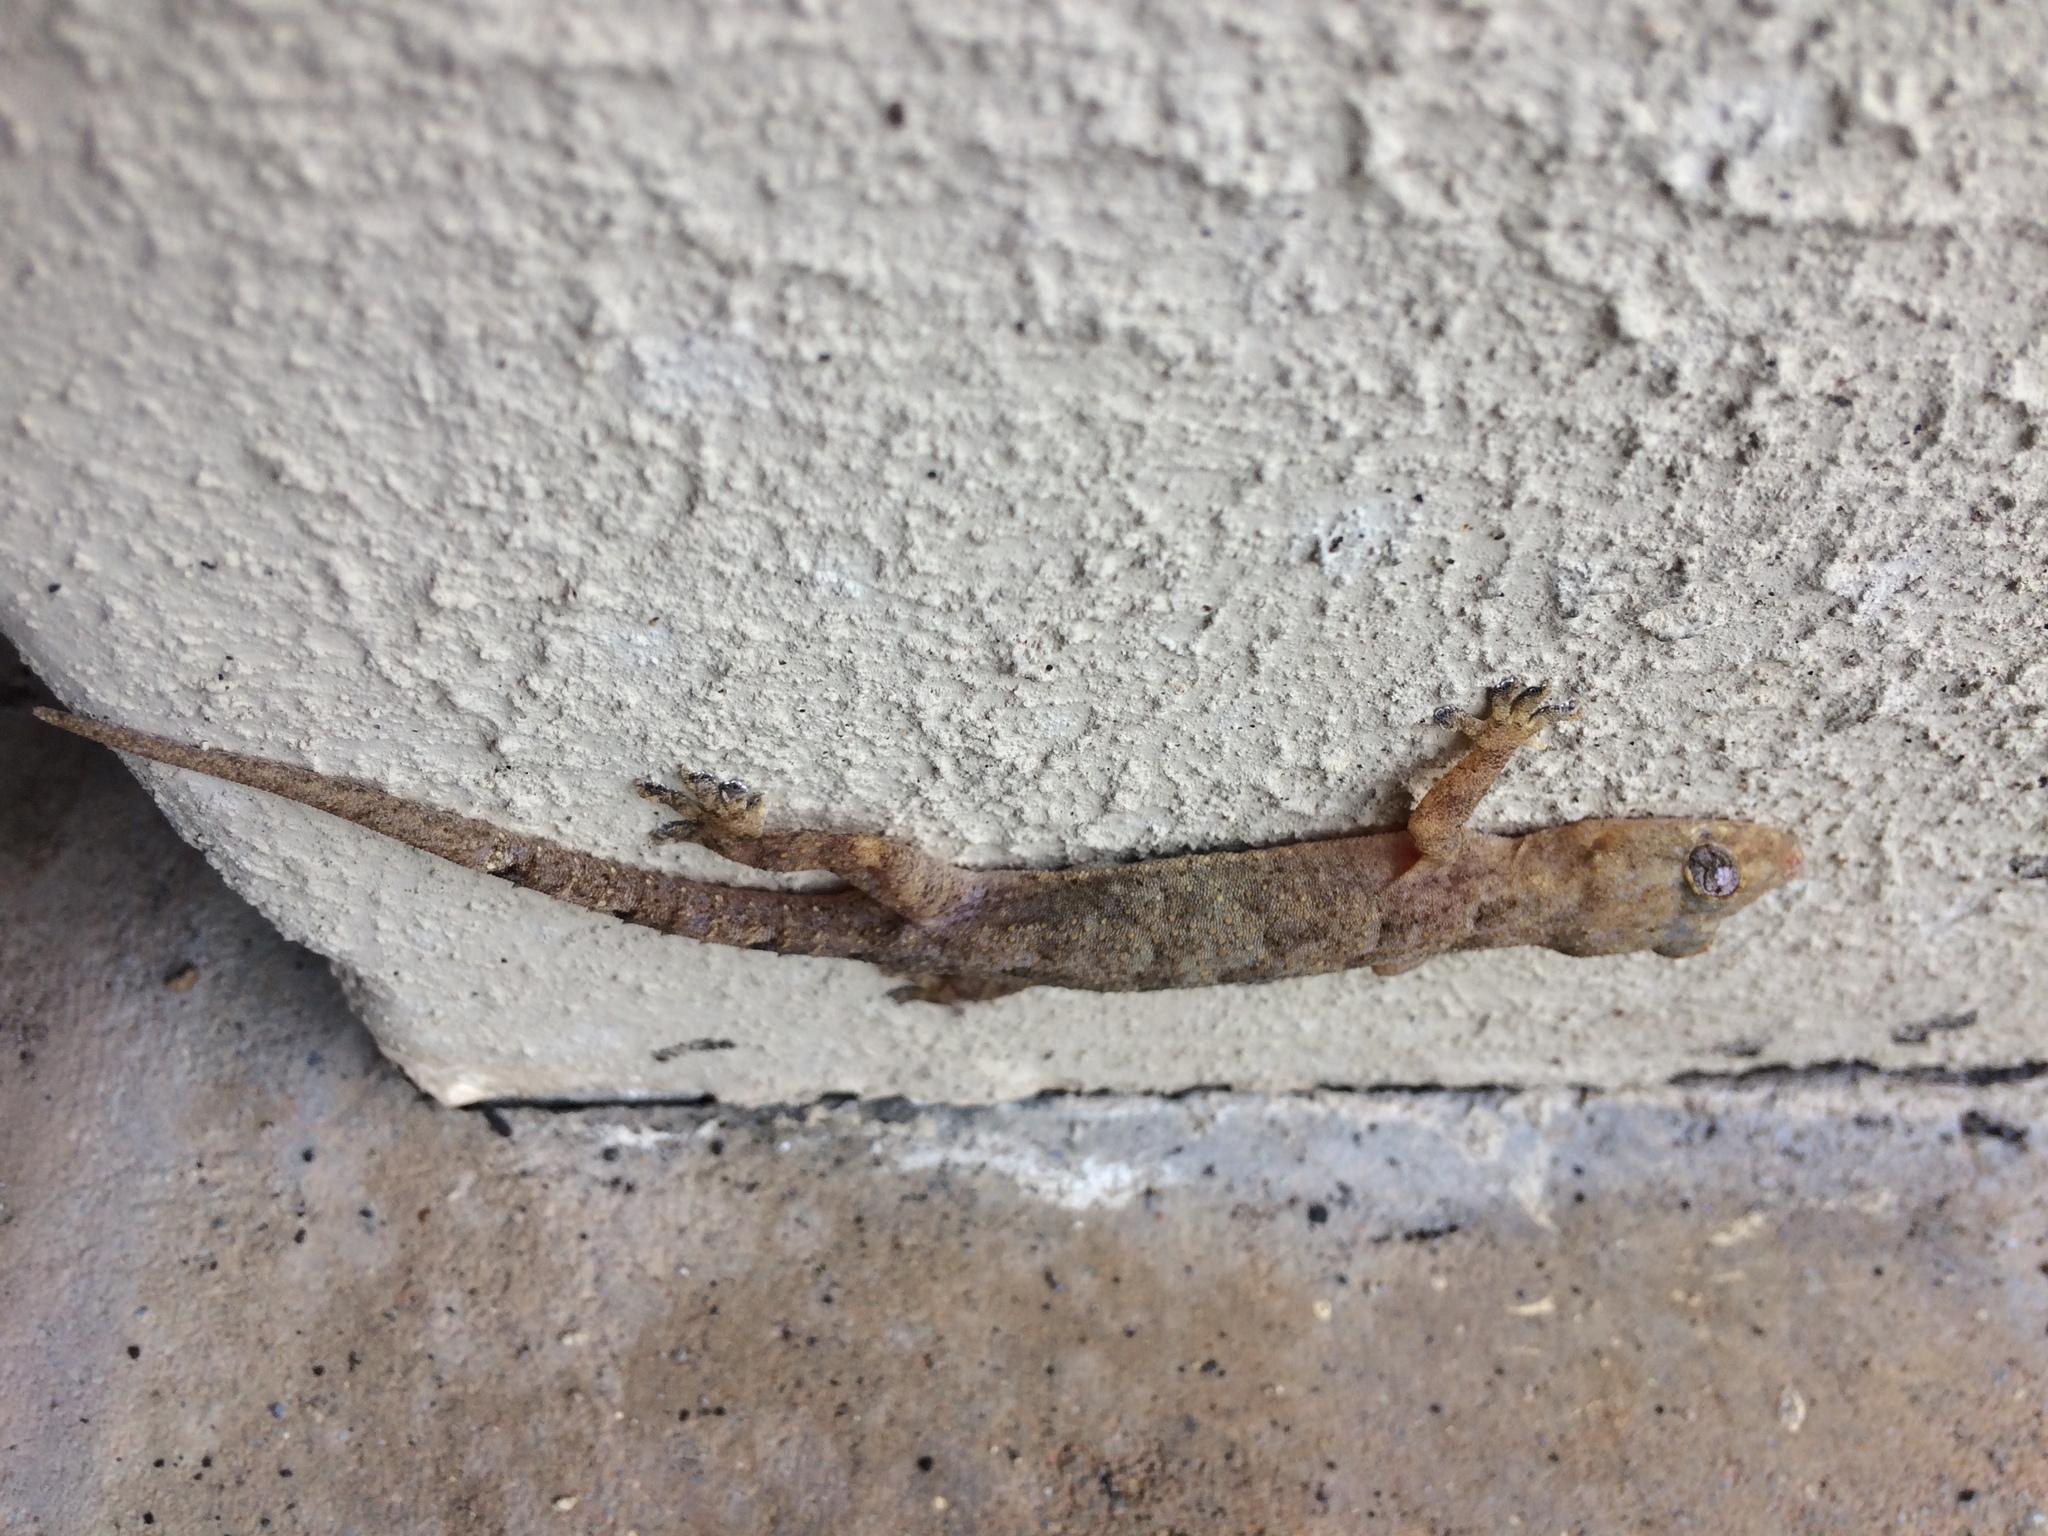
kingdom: Animalia
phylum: Chordata
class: Squamata
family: Gekkonidae
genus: Hemidactylus
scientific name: Hemidactylus mabouia
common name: House gecko
